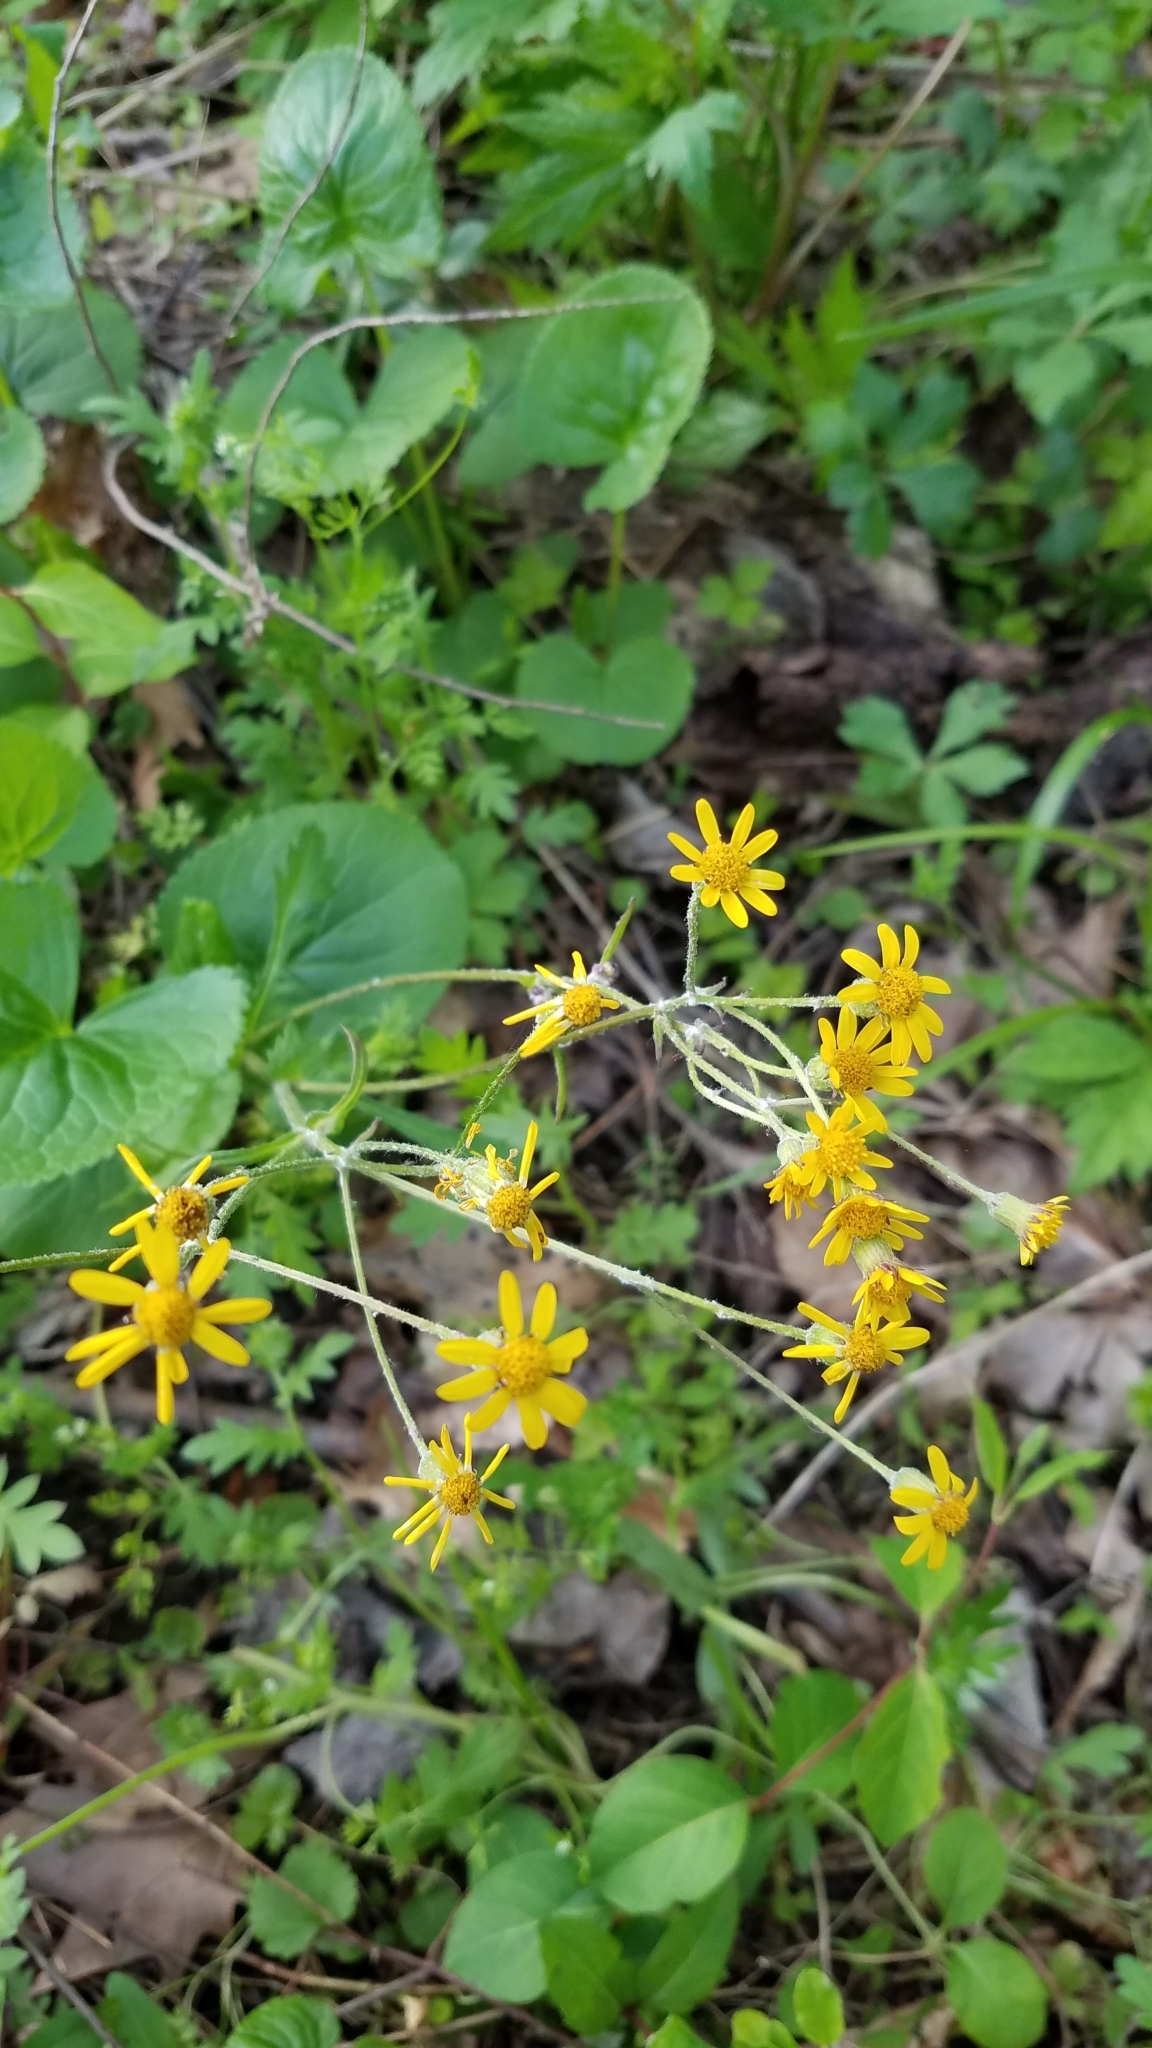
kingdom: Plantae
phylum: Tracheophyta
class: Magnoliopsida
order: Asterales
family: Asteraceae
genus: Packera
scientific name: Packera aurea
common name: Golden groundsel
